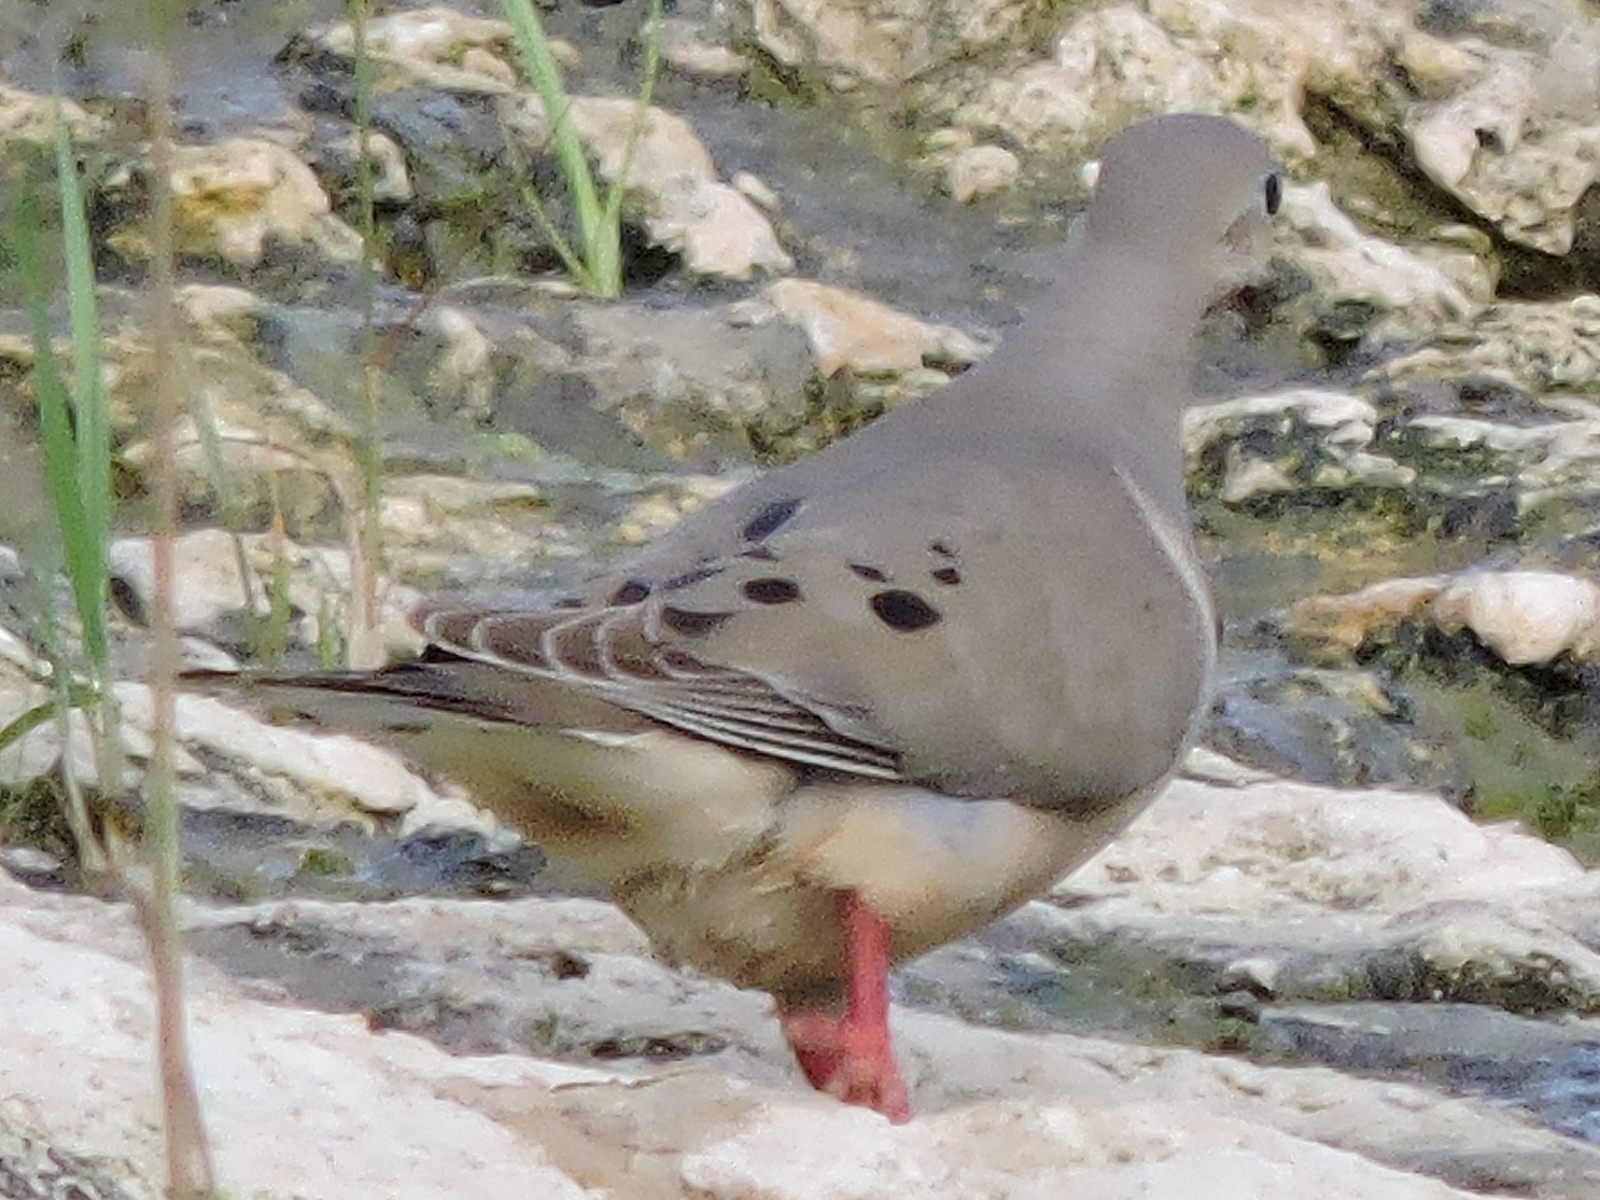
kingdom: Animalia
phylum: Chordata
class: Aves
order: Columbiformes
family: Columbidae
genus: Zenaida
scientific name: Zenaida macroura
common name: Mourning dove
